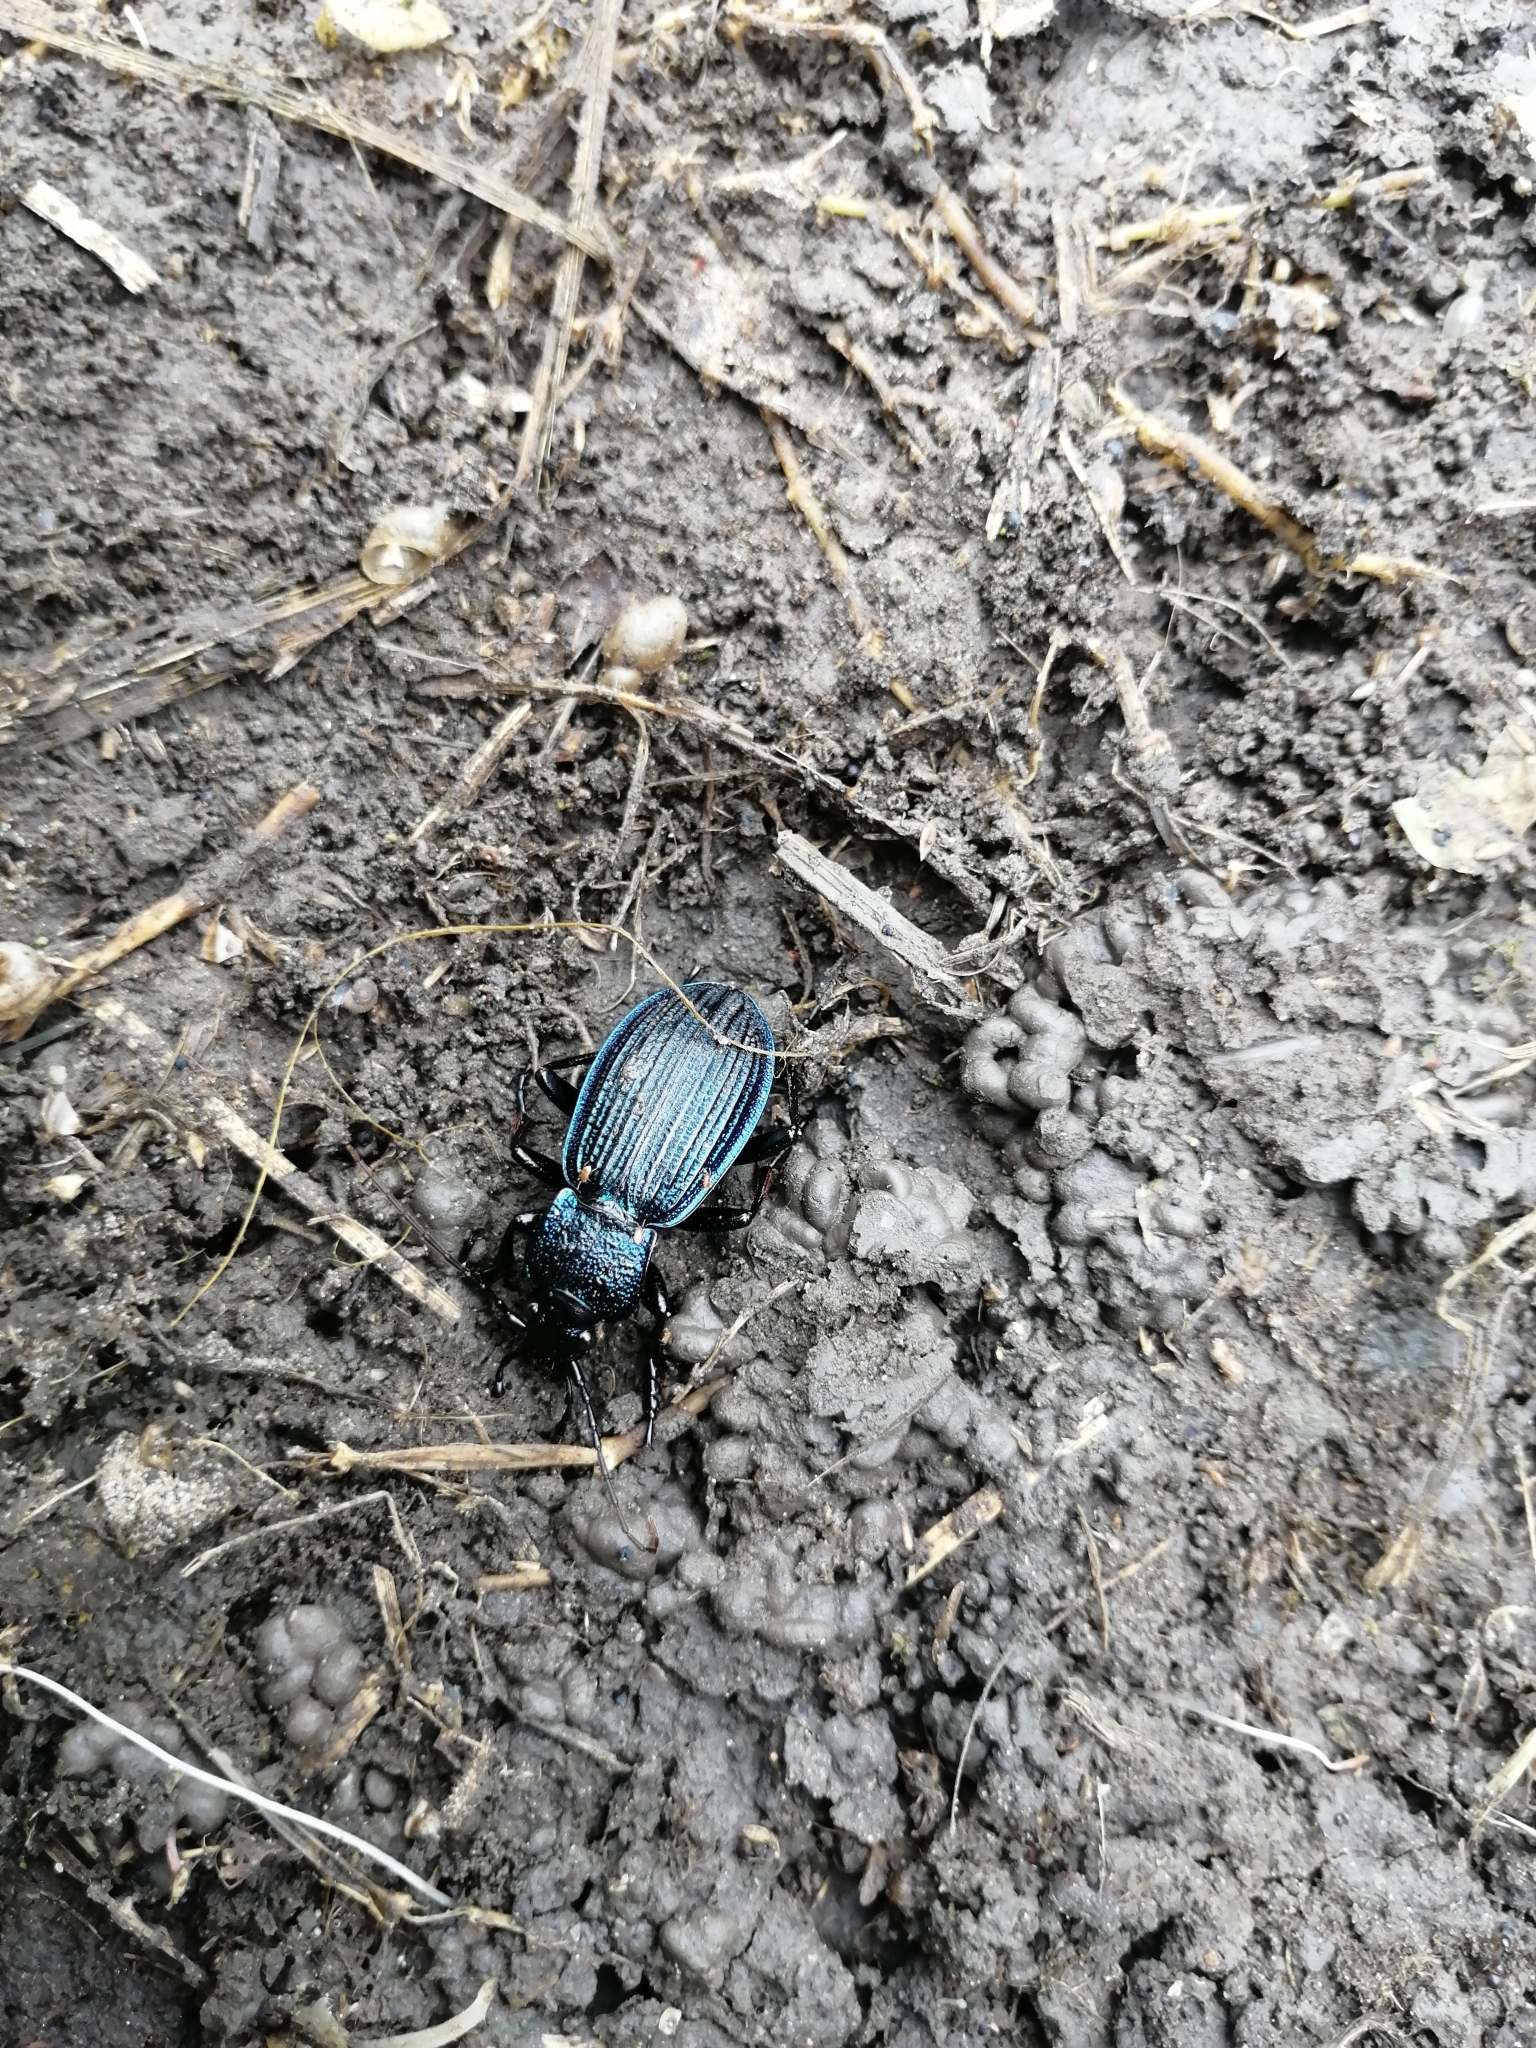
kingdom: Animalia
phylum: Arthropoda
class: Insecta
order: Coleoptera
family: Carabidae
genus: Carabus
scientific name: Carabus exaratus
